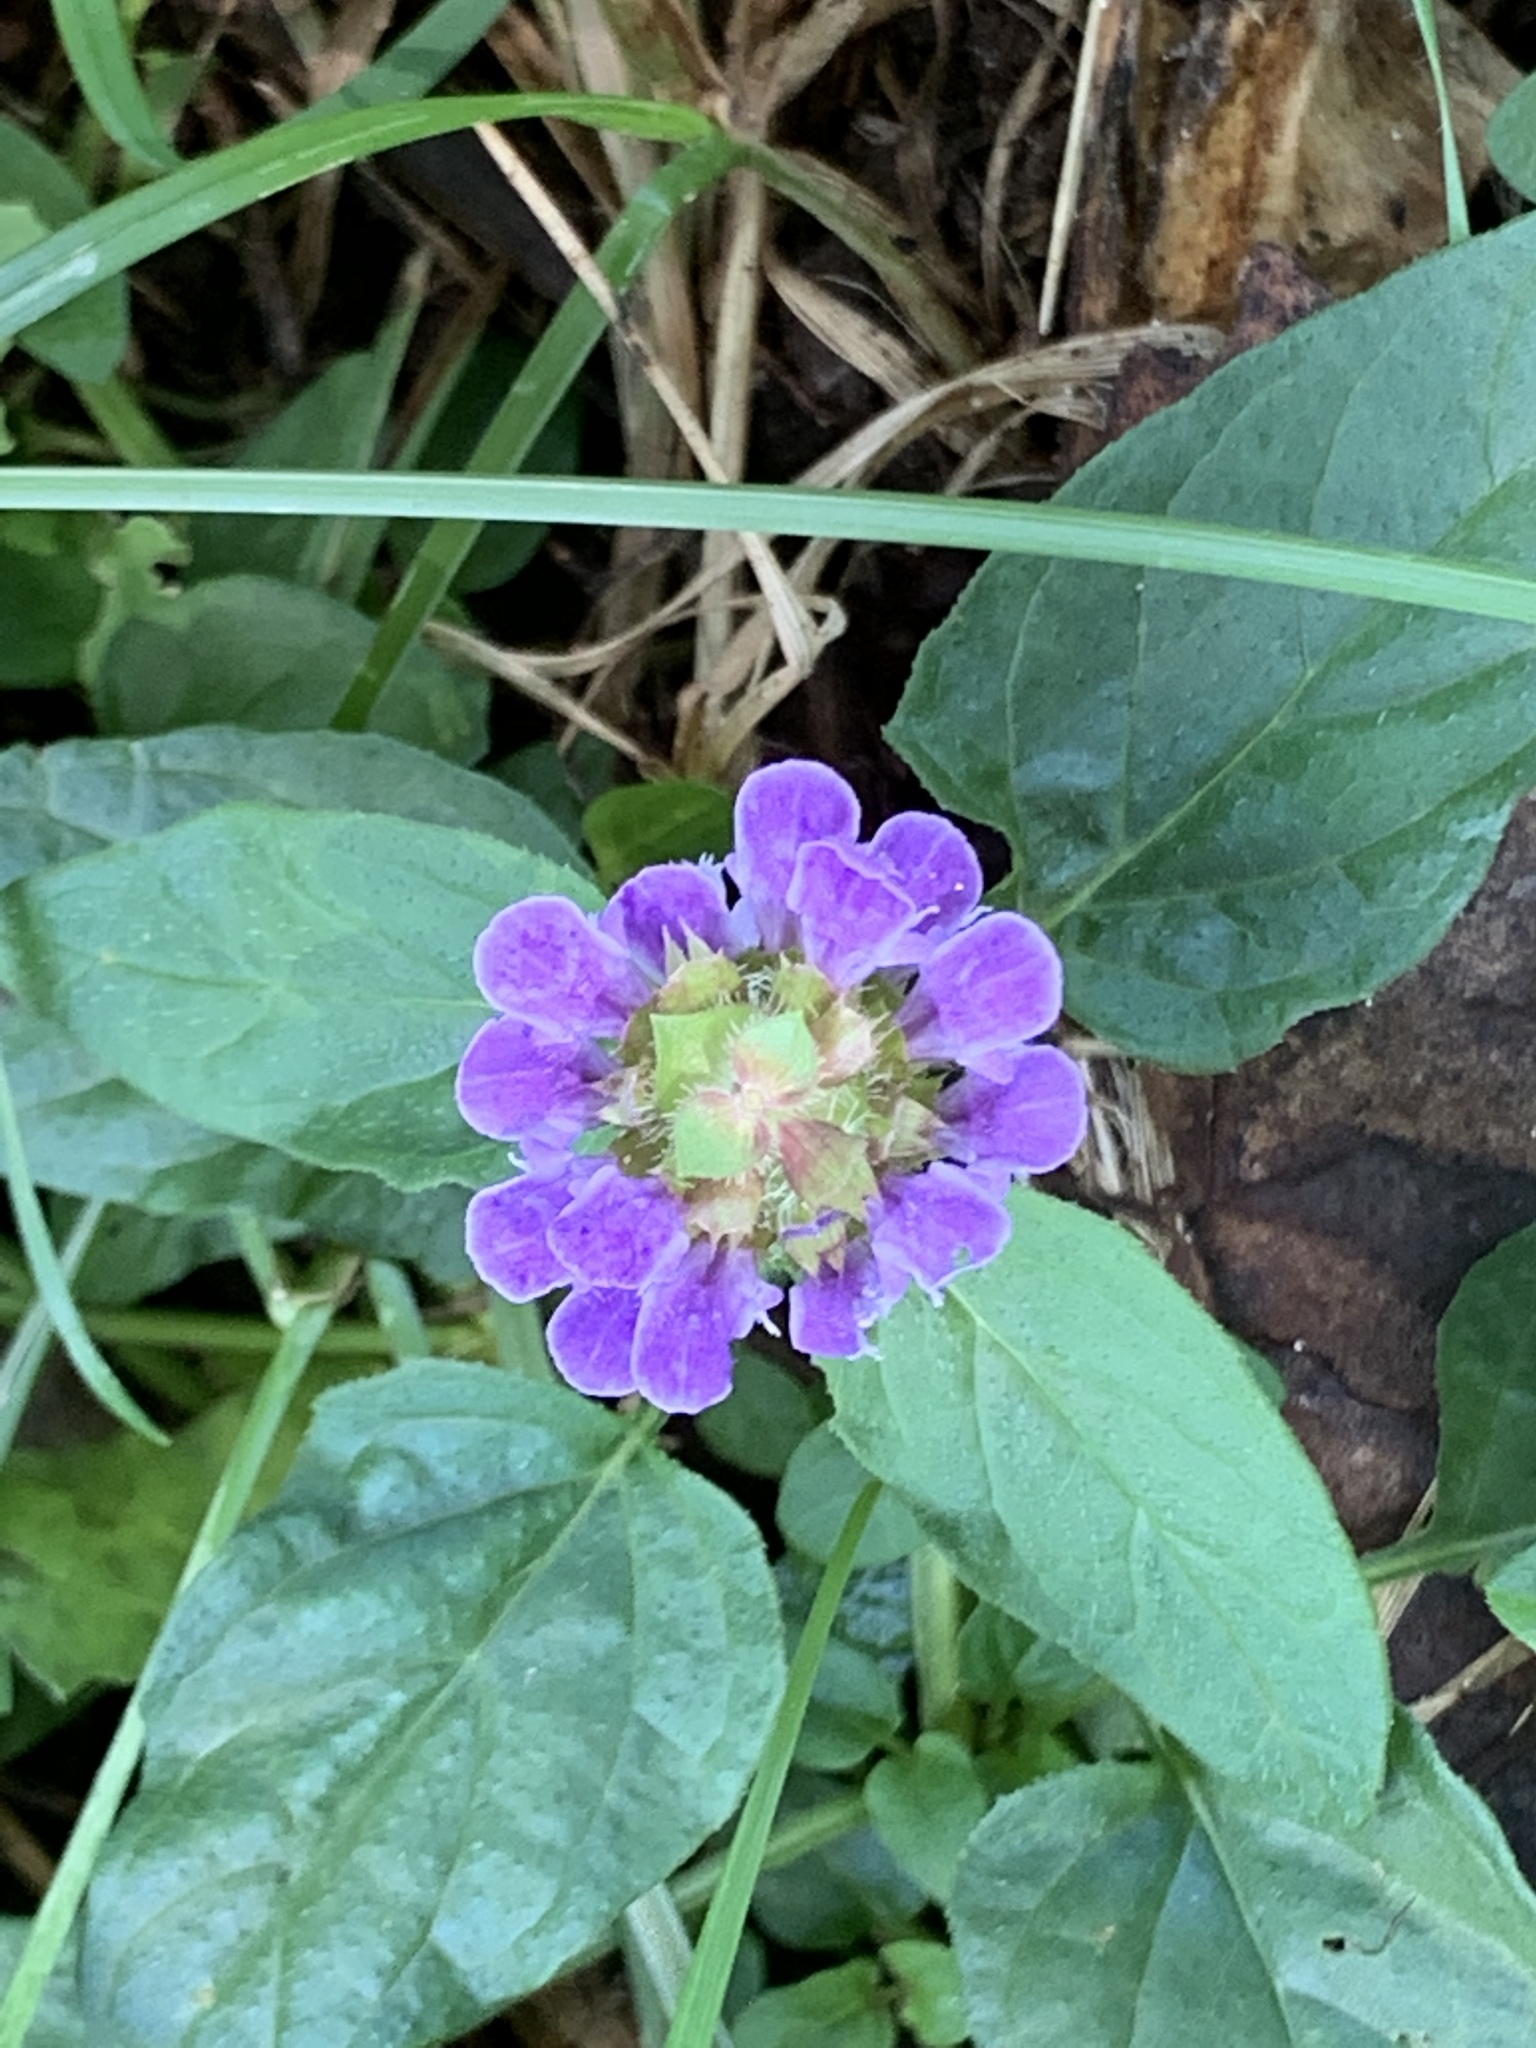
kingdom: Plantae
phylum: Tracheophyta
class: Magnoliopsida
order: Lamiales
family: Lamiaceae
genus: Prunella
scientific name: Prunella vulgaris
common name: Heal-all
